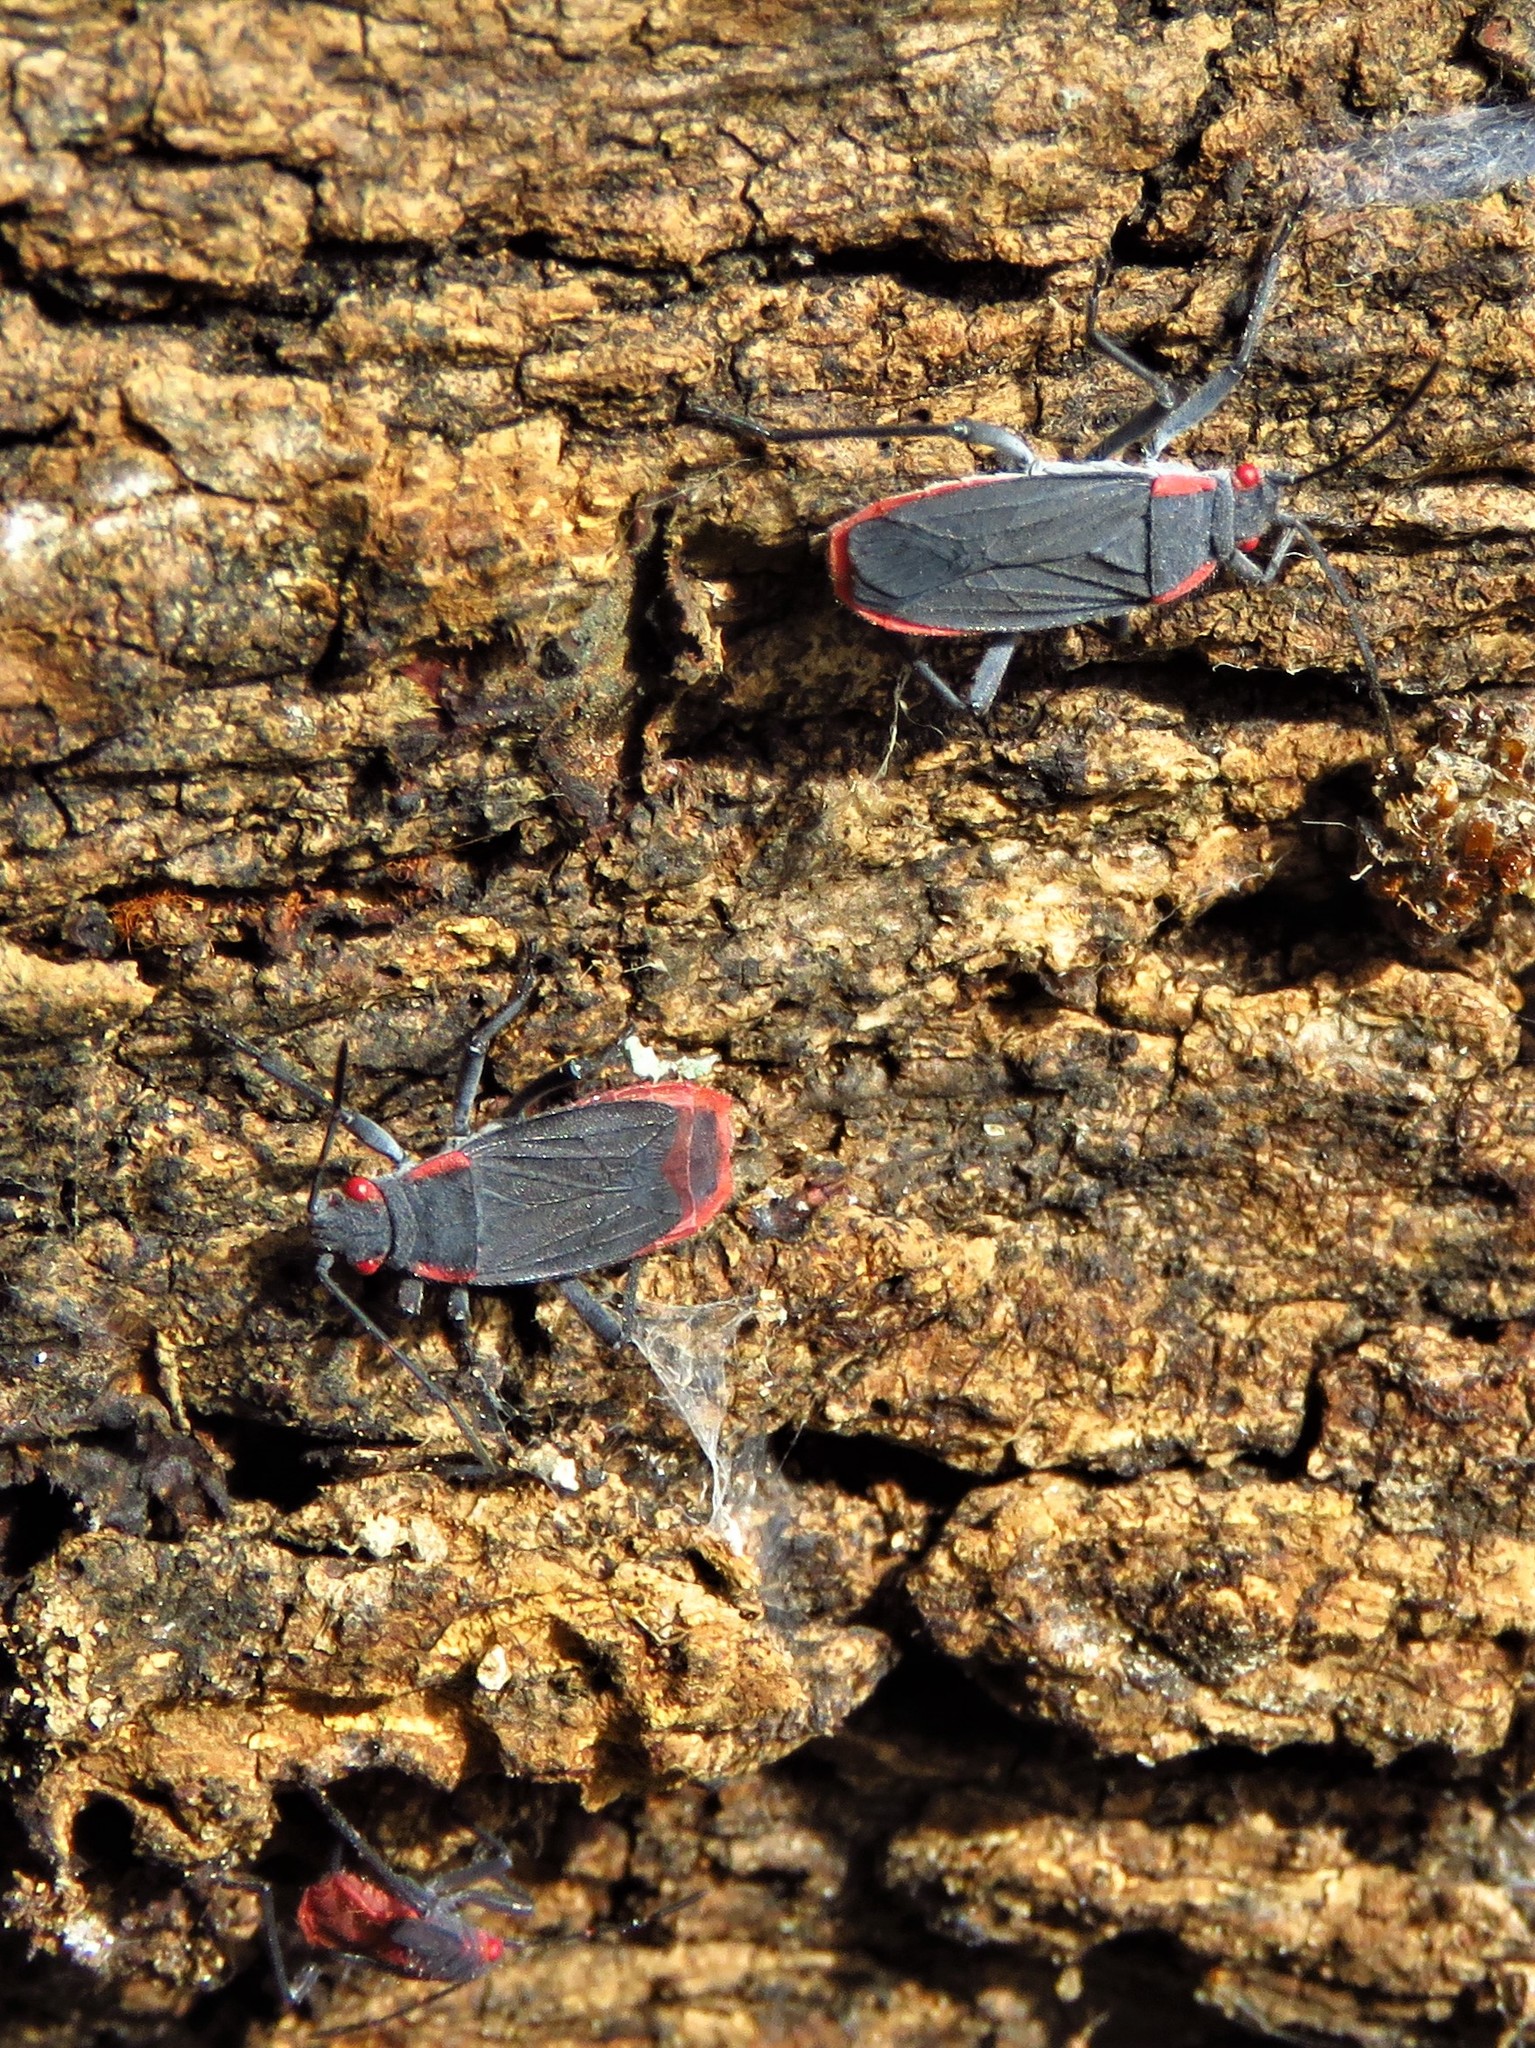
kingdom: Animalia
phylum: Arthropoda
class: Insecta
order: Hemiptera
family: Rhopalidae
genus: Jadera
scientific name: Jadera haematoloma
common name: Red-shouldered bug
